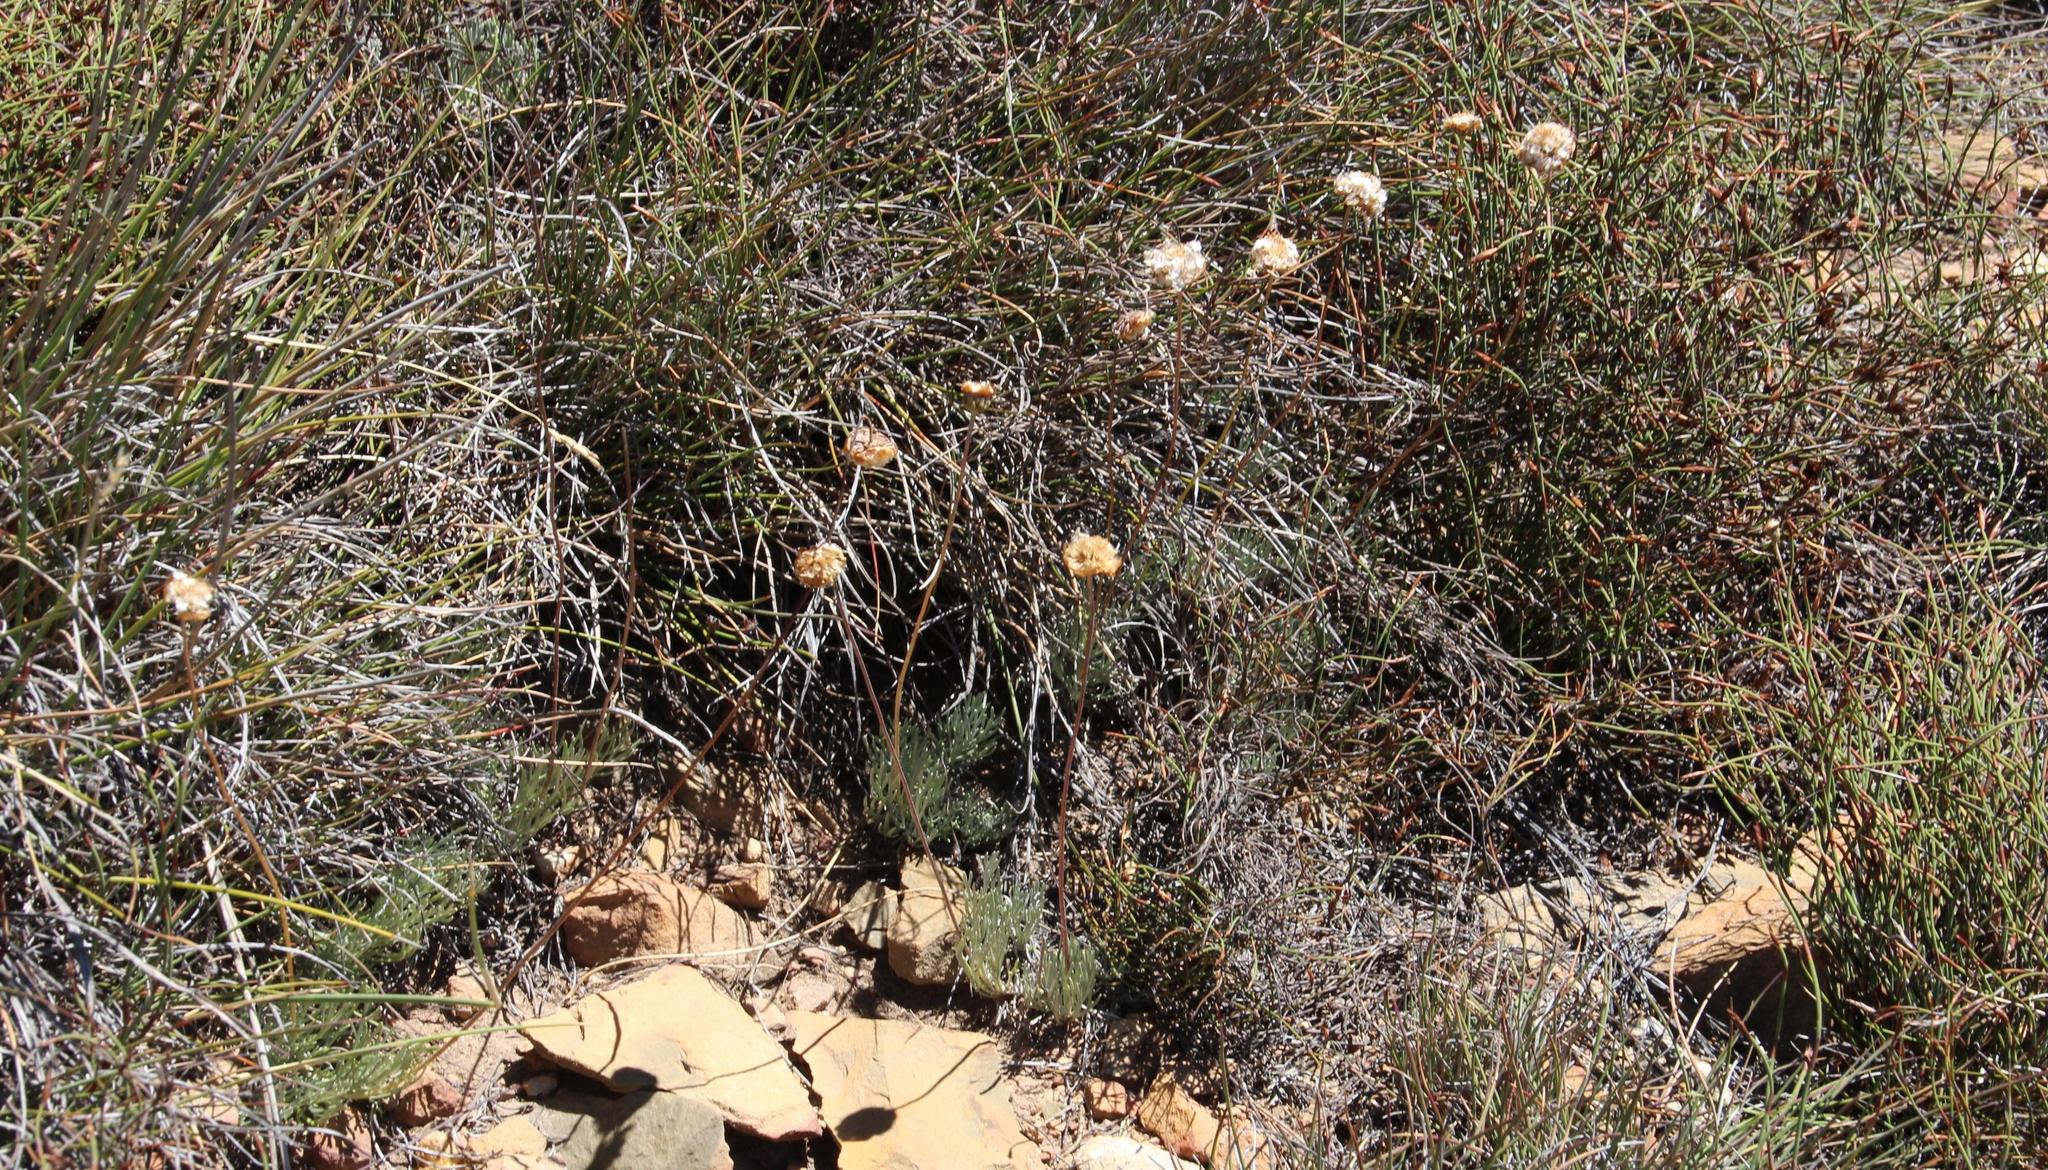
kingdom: Plantae
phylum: Tracheophyta
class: Magnoliopsida
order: Asterales
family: Asteraceae
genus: Ursinia
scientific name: Ursinia sericea
